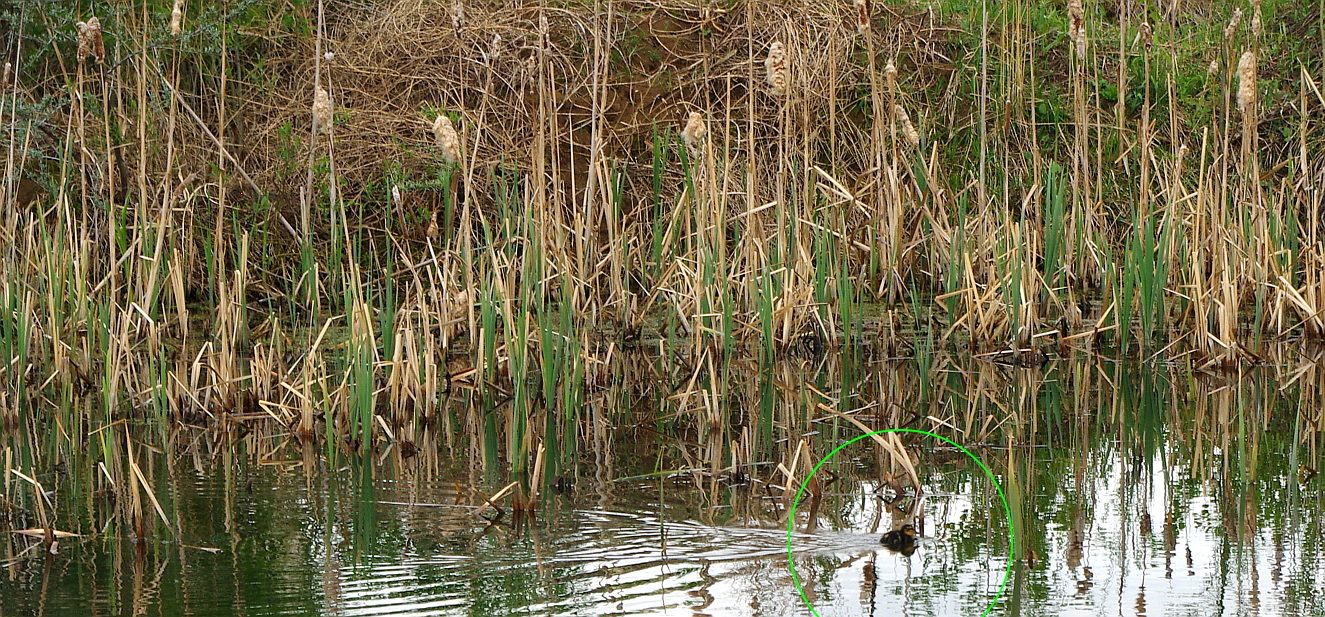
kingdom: Animalia
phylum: Chordata
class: Aves
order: Anseriformes
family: Anatidae
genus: Anas
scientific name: Anas platyrhynchos
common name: Mallard
